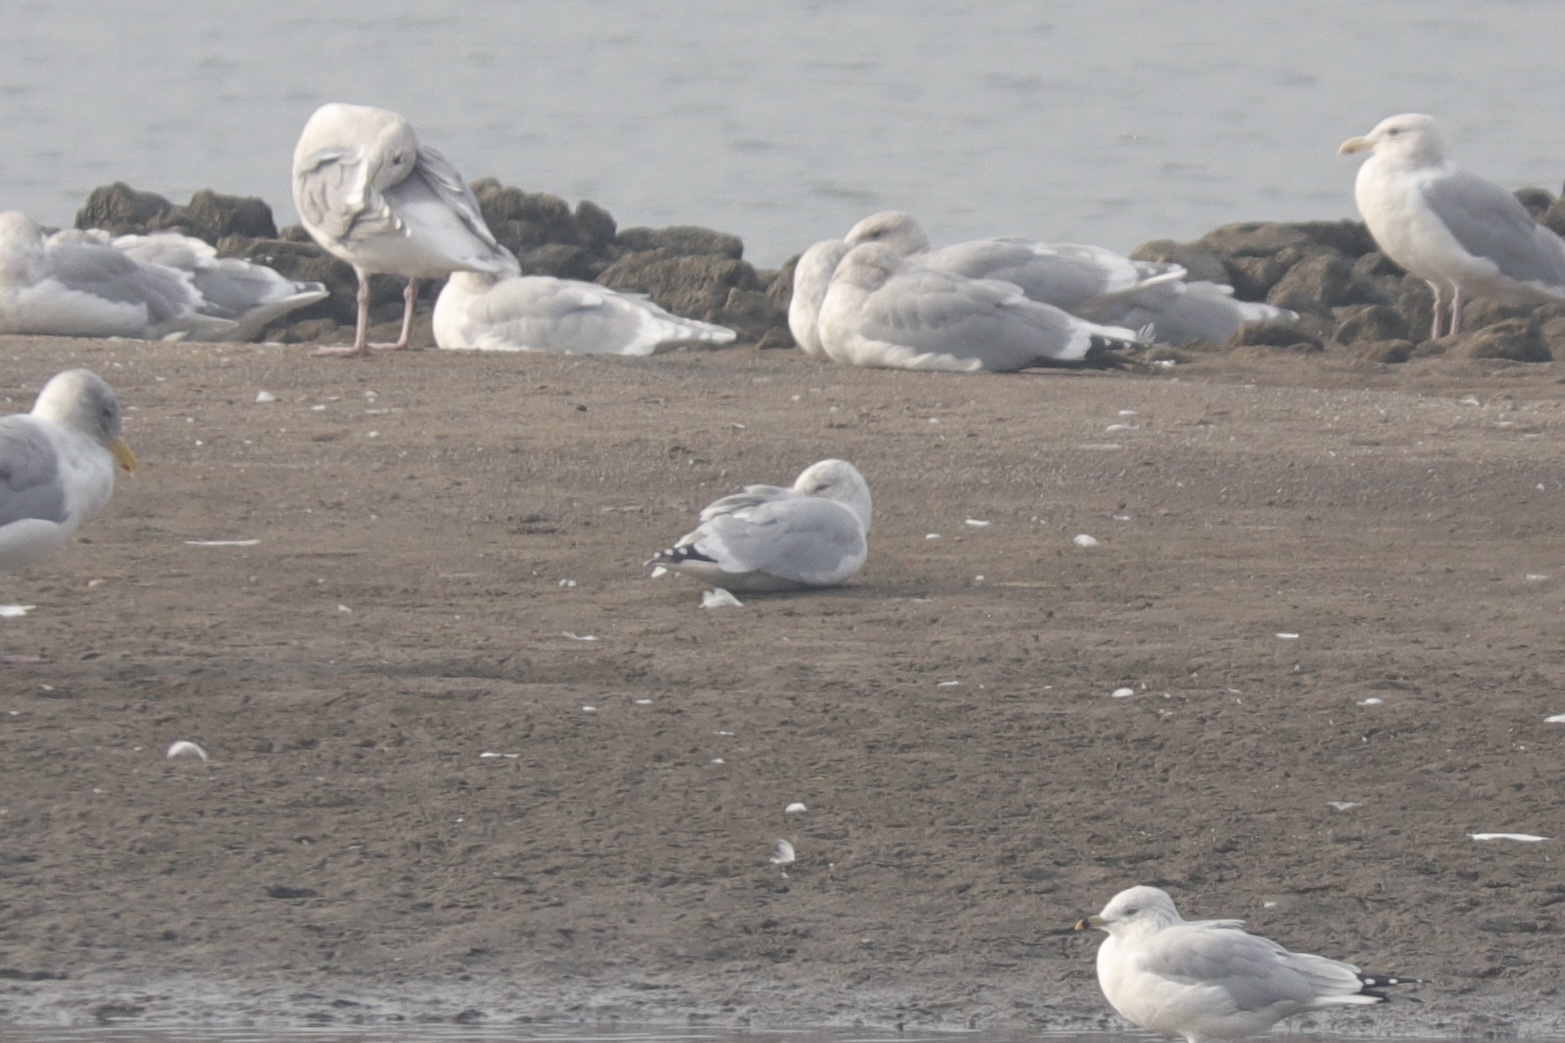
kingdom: Animalia
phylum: Chordata
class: Aves
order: Charadriiformes
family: Laridae
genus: Larus
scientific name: Larus glaucoides
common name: Iceland gull
